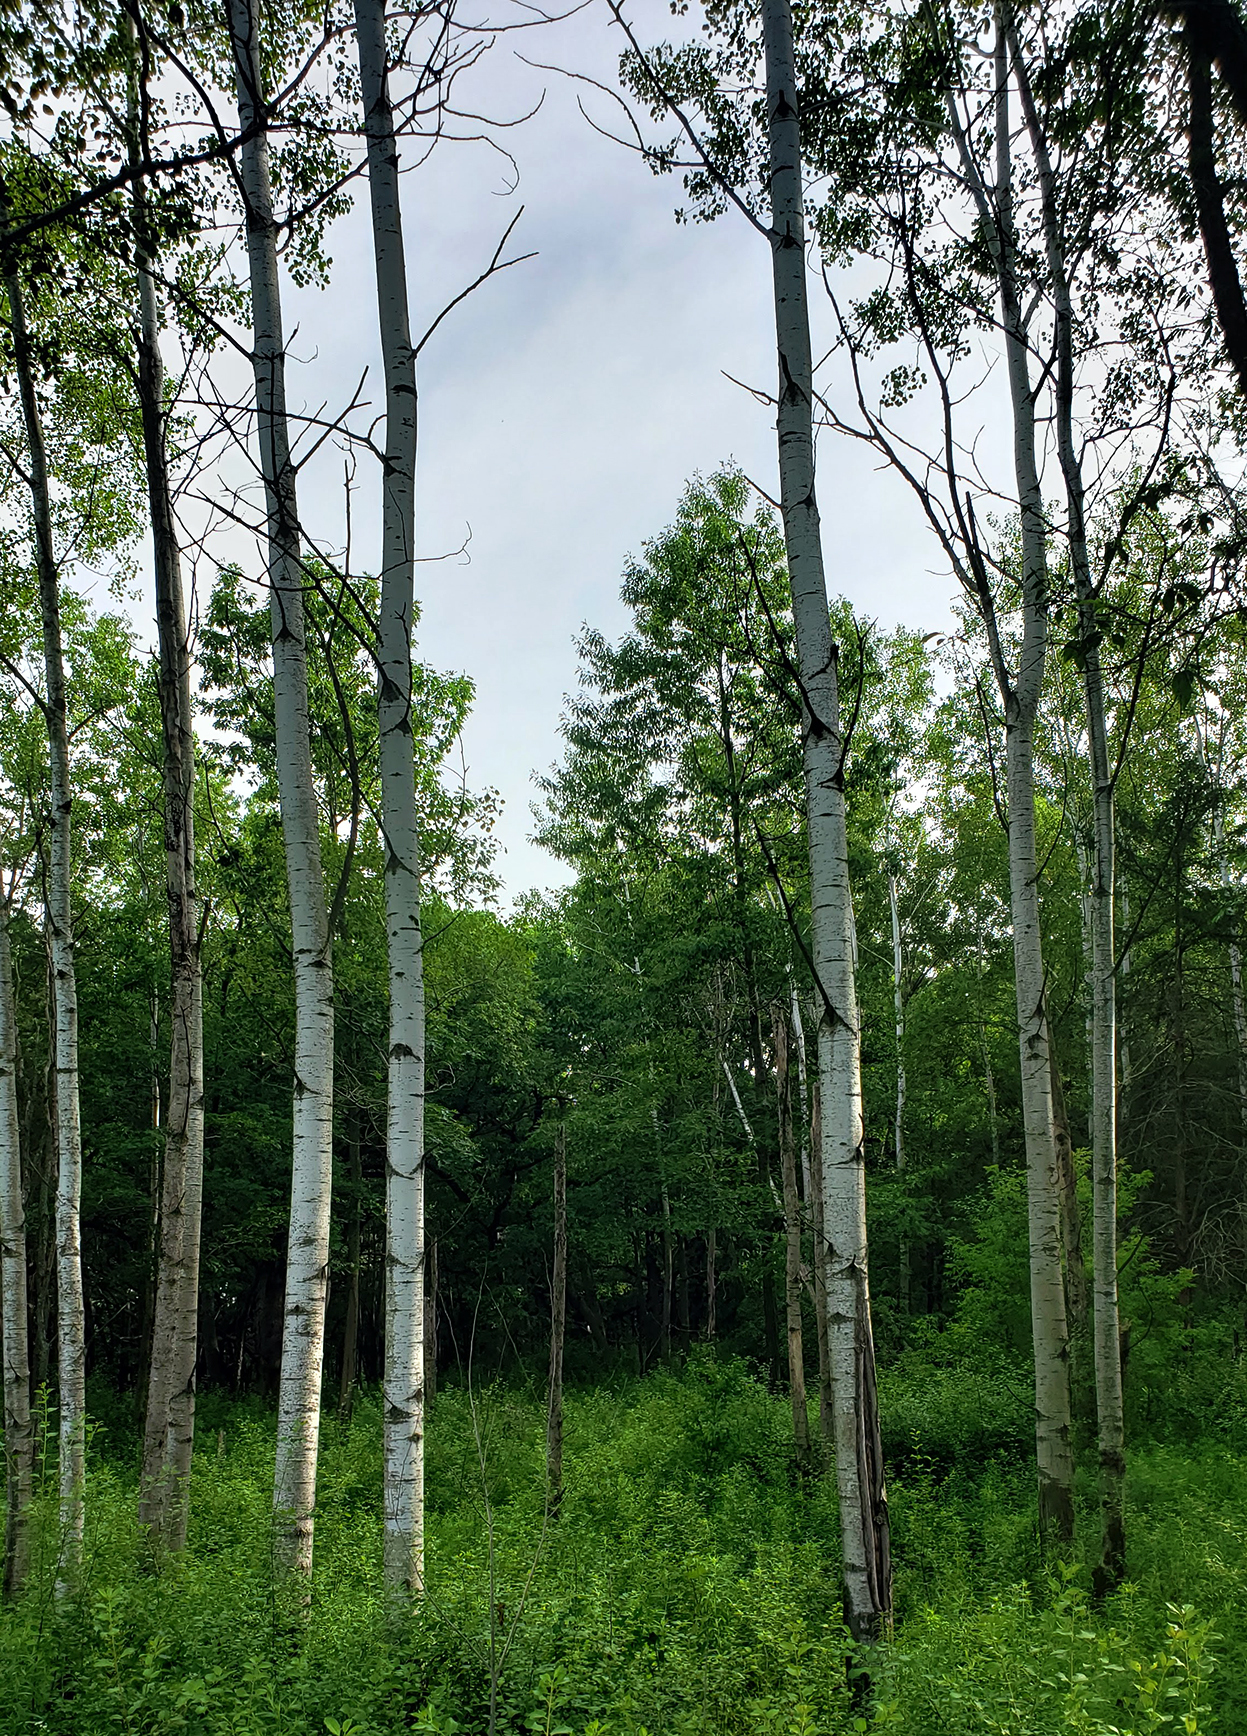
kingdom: Plantae
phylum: Tracheophyta
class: Magnoliopsida
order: Malpighiales
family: Salicaceae
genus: Populus
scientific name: Populus tremuloides
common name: Quaking aspen
